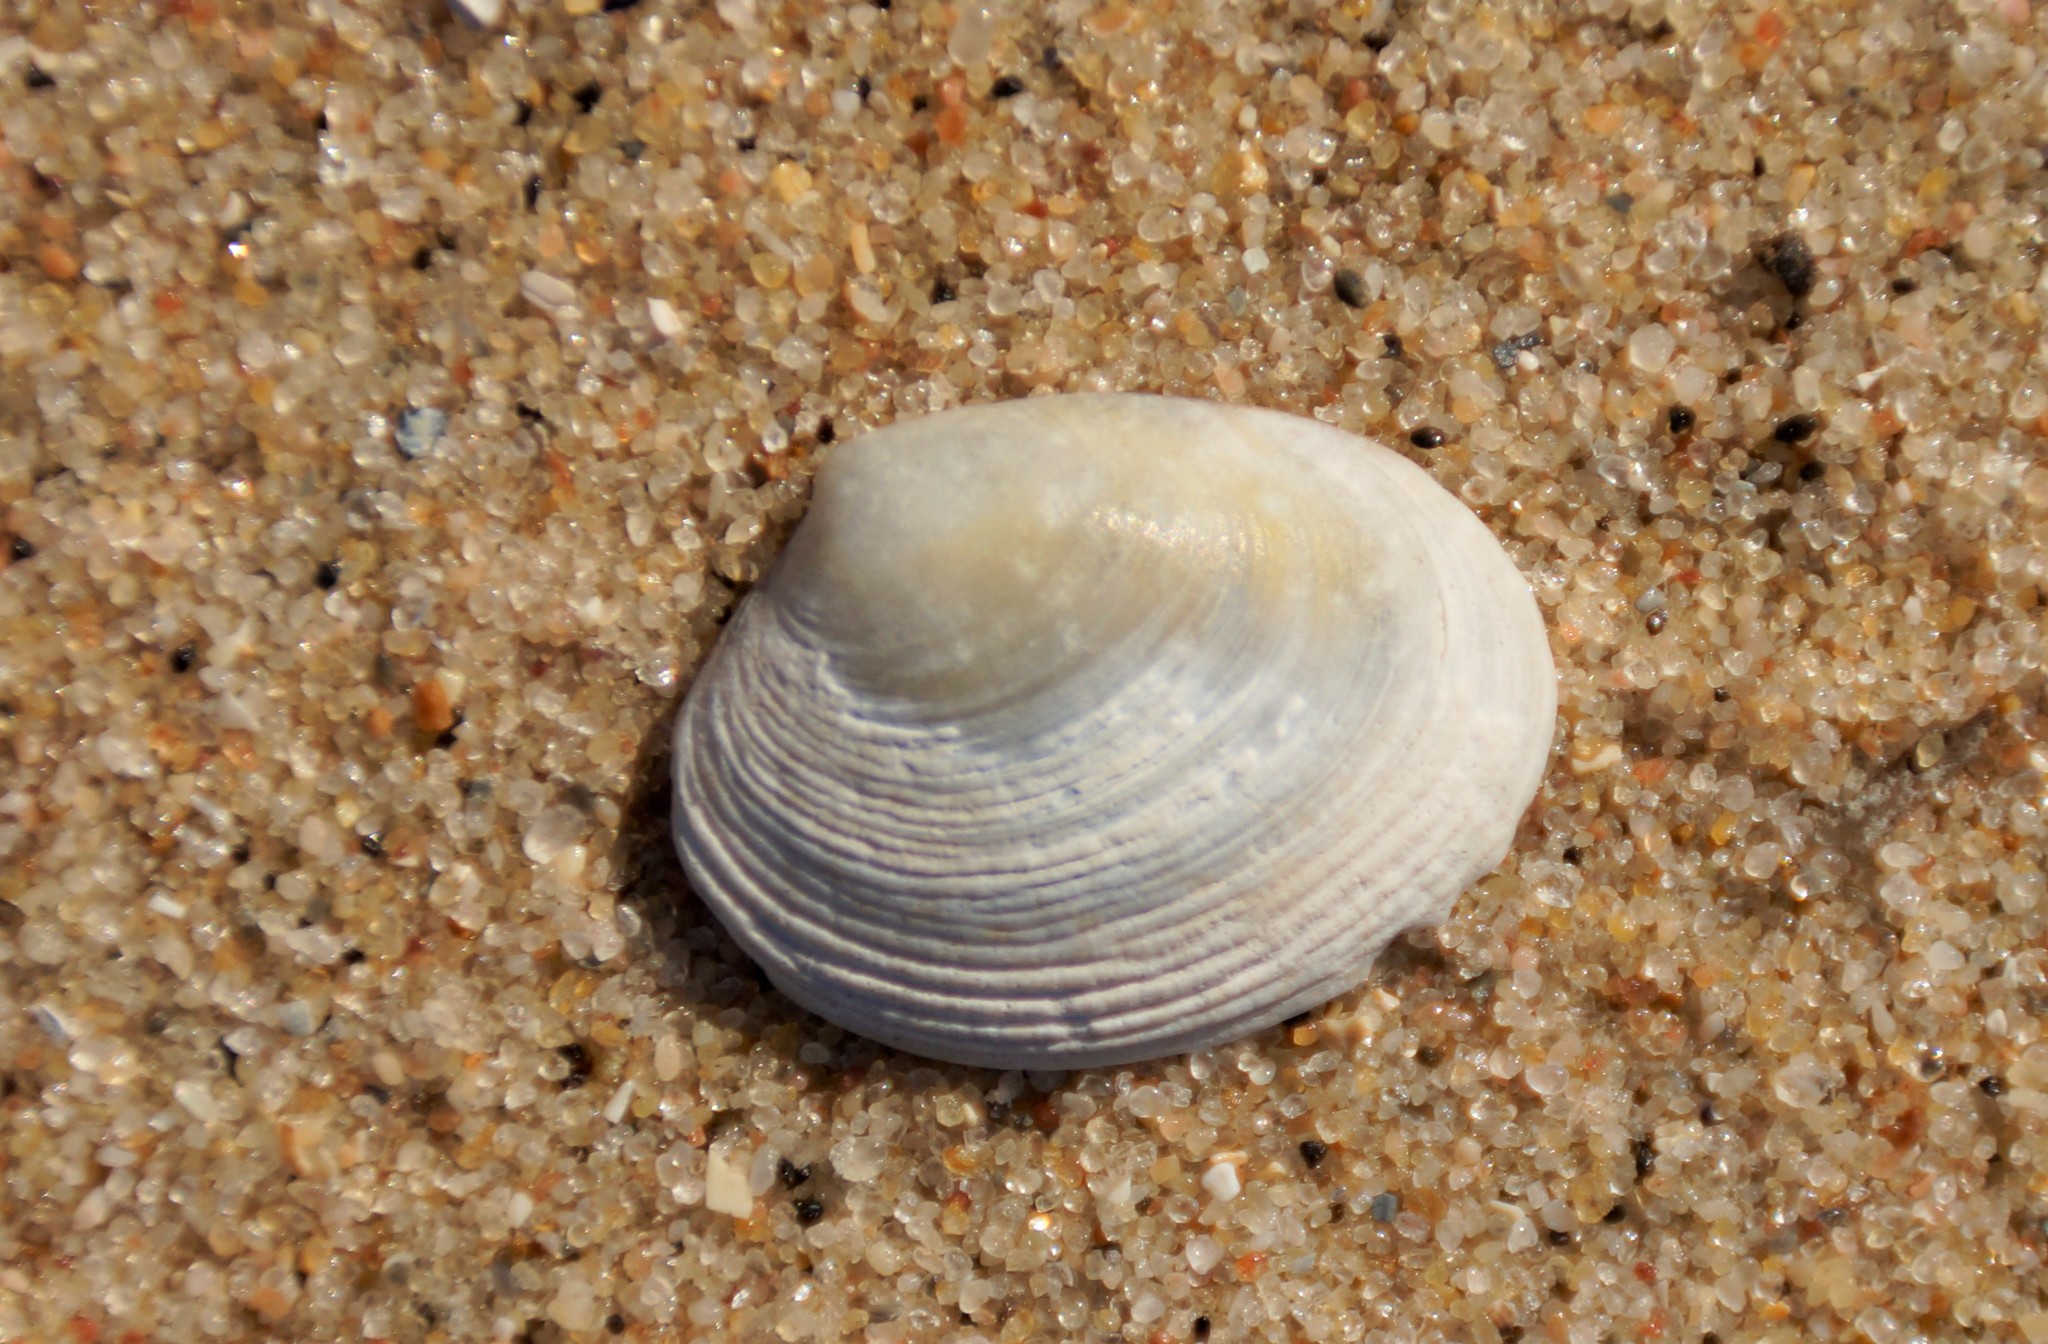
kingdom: Animalia
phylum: Mollusca
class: Bivalvia
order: Venerida
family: Veneridae
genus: Katelysia
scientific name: Katelysia rhytiphora
